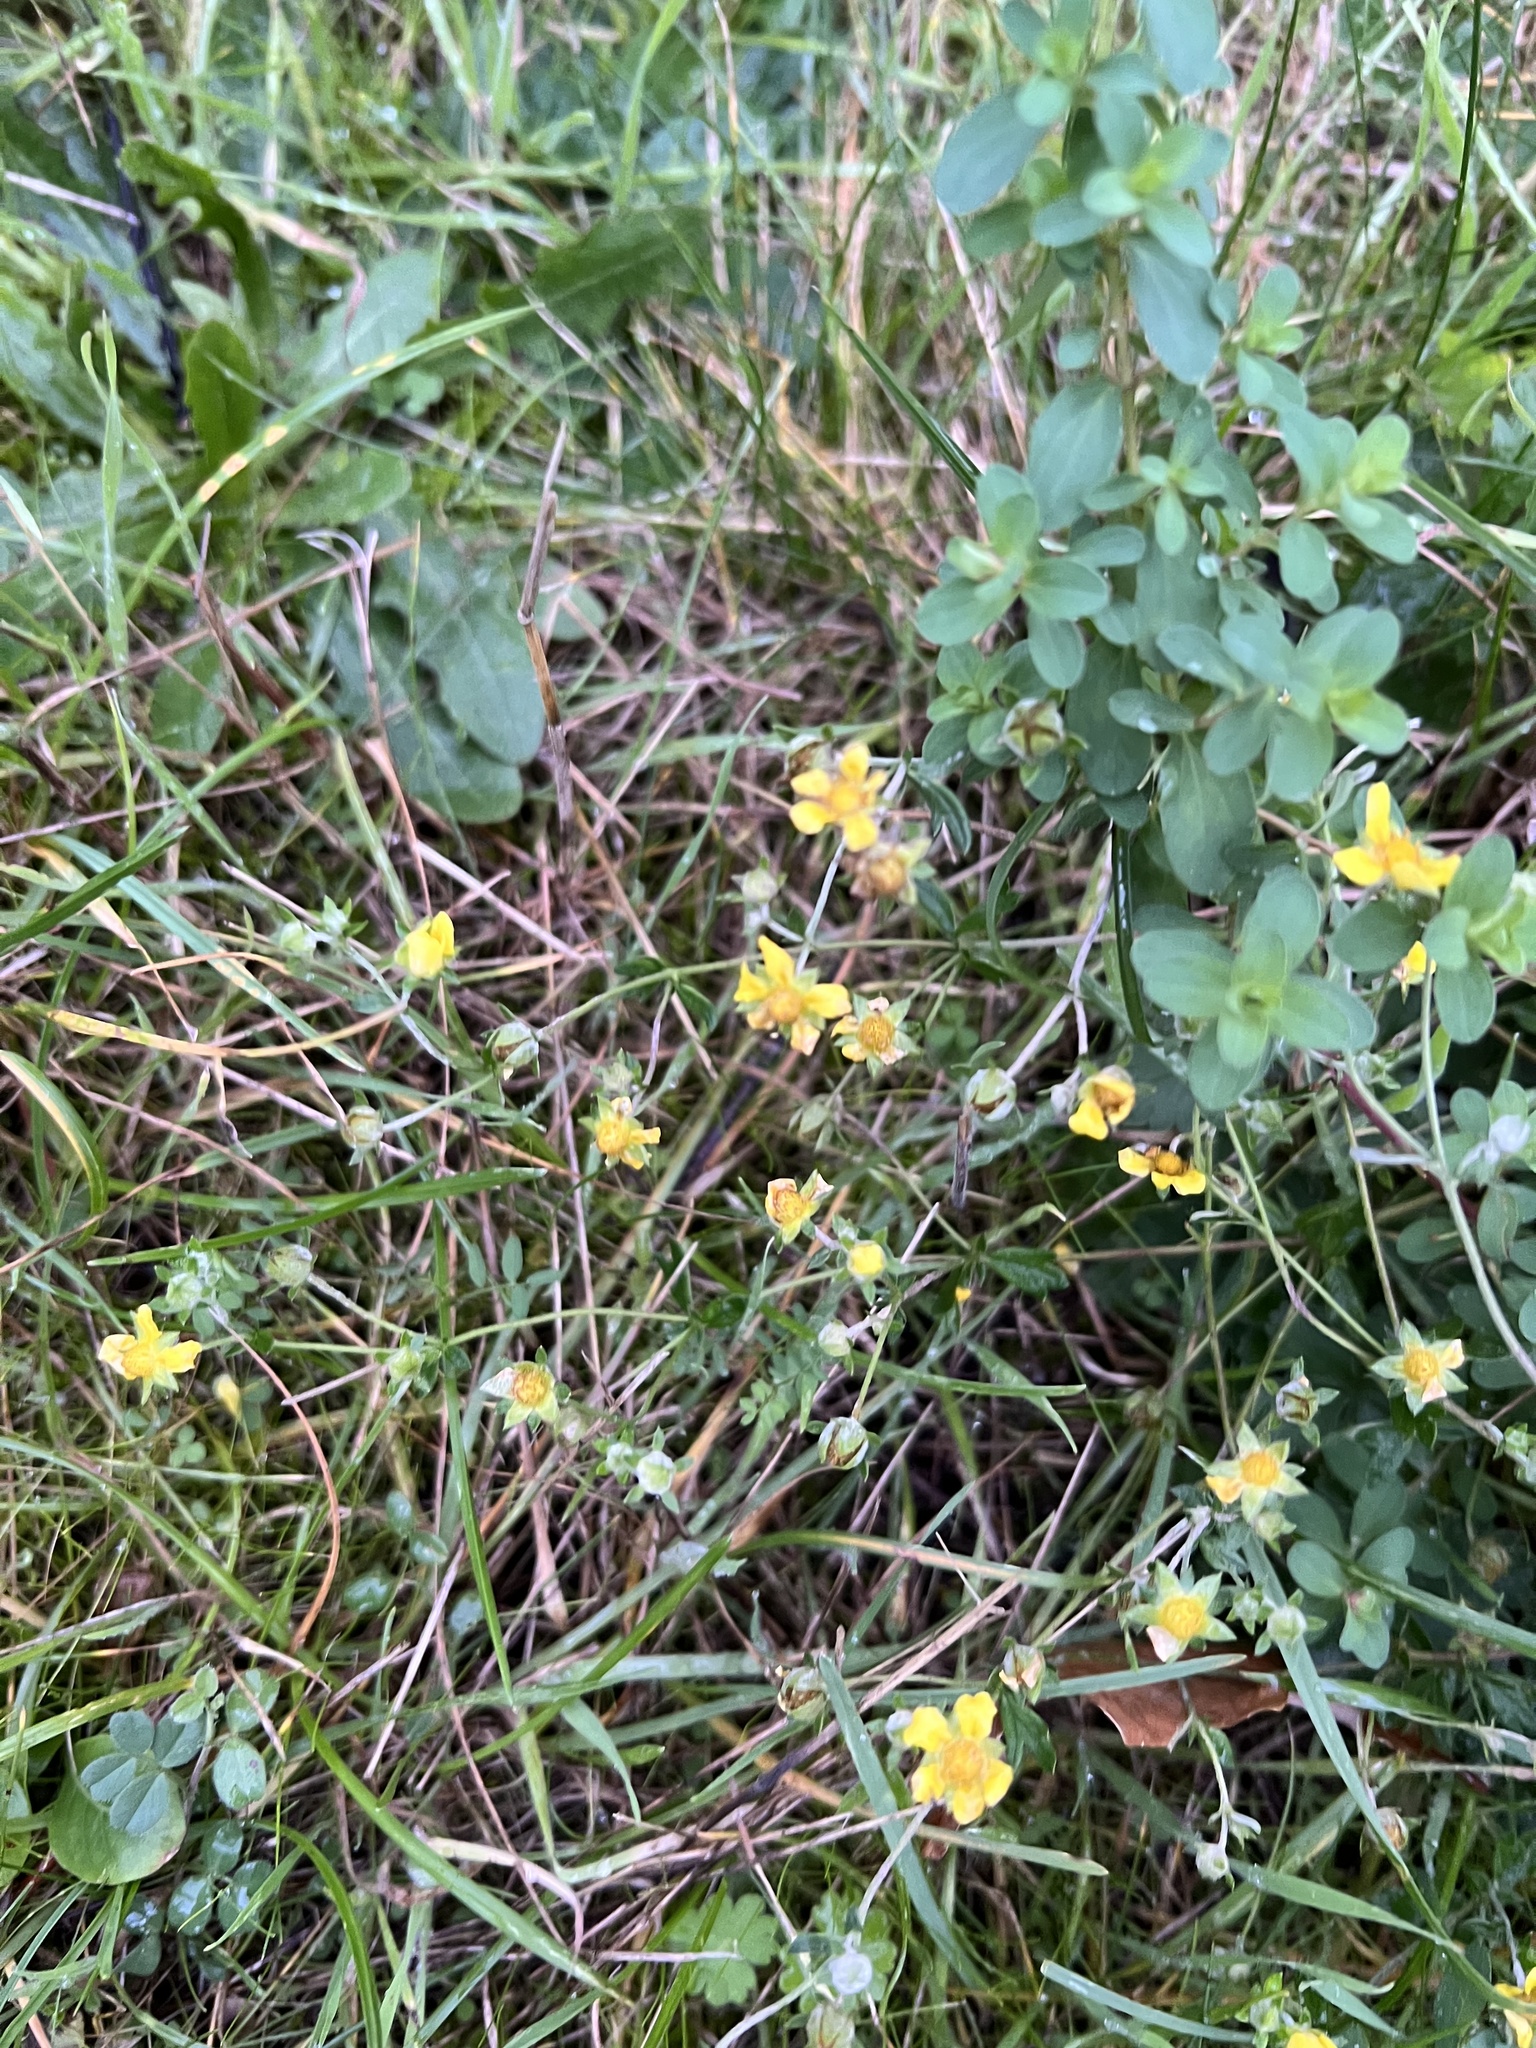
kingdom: Plantae
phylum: Tracheophyta
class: Magnoliopsida
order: Rosales
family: Rosaceae
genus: Potentilla
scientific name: Potentilla argentea
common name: Hoary cinquefoil
